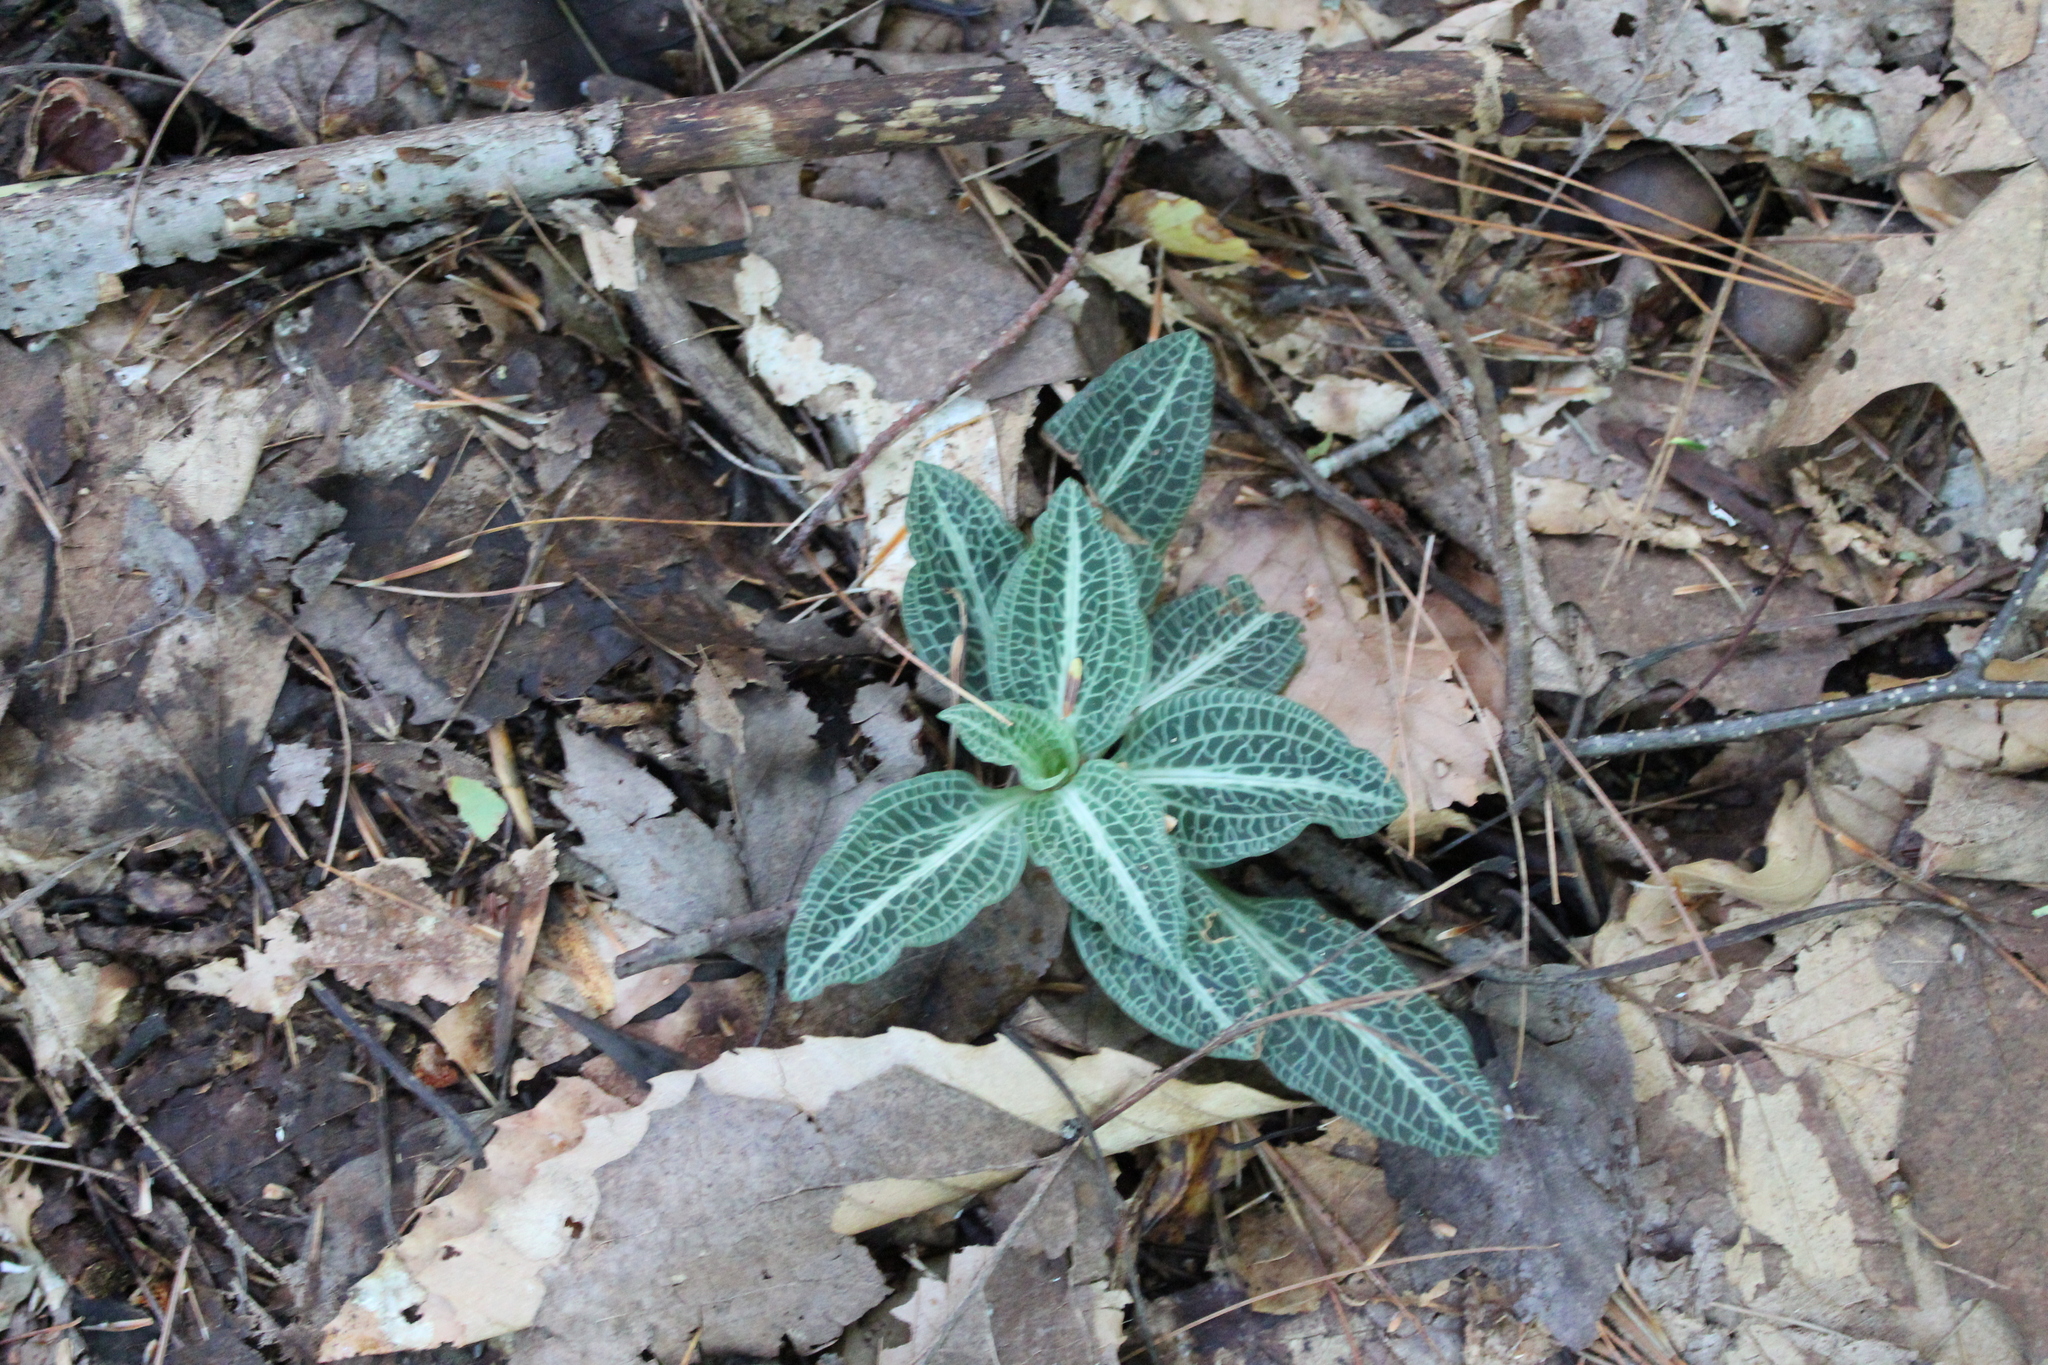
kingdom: Plantae
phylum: Tracheophyta
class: Liliopsida
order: Asparagales
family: Orchidaceae
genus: Goodyera
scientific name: Goodyera pubescens
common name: Downy rattlesnake-plantain
